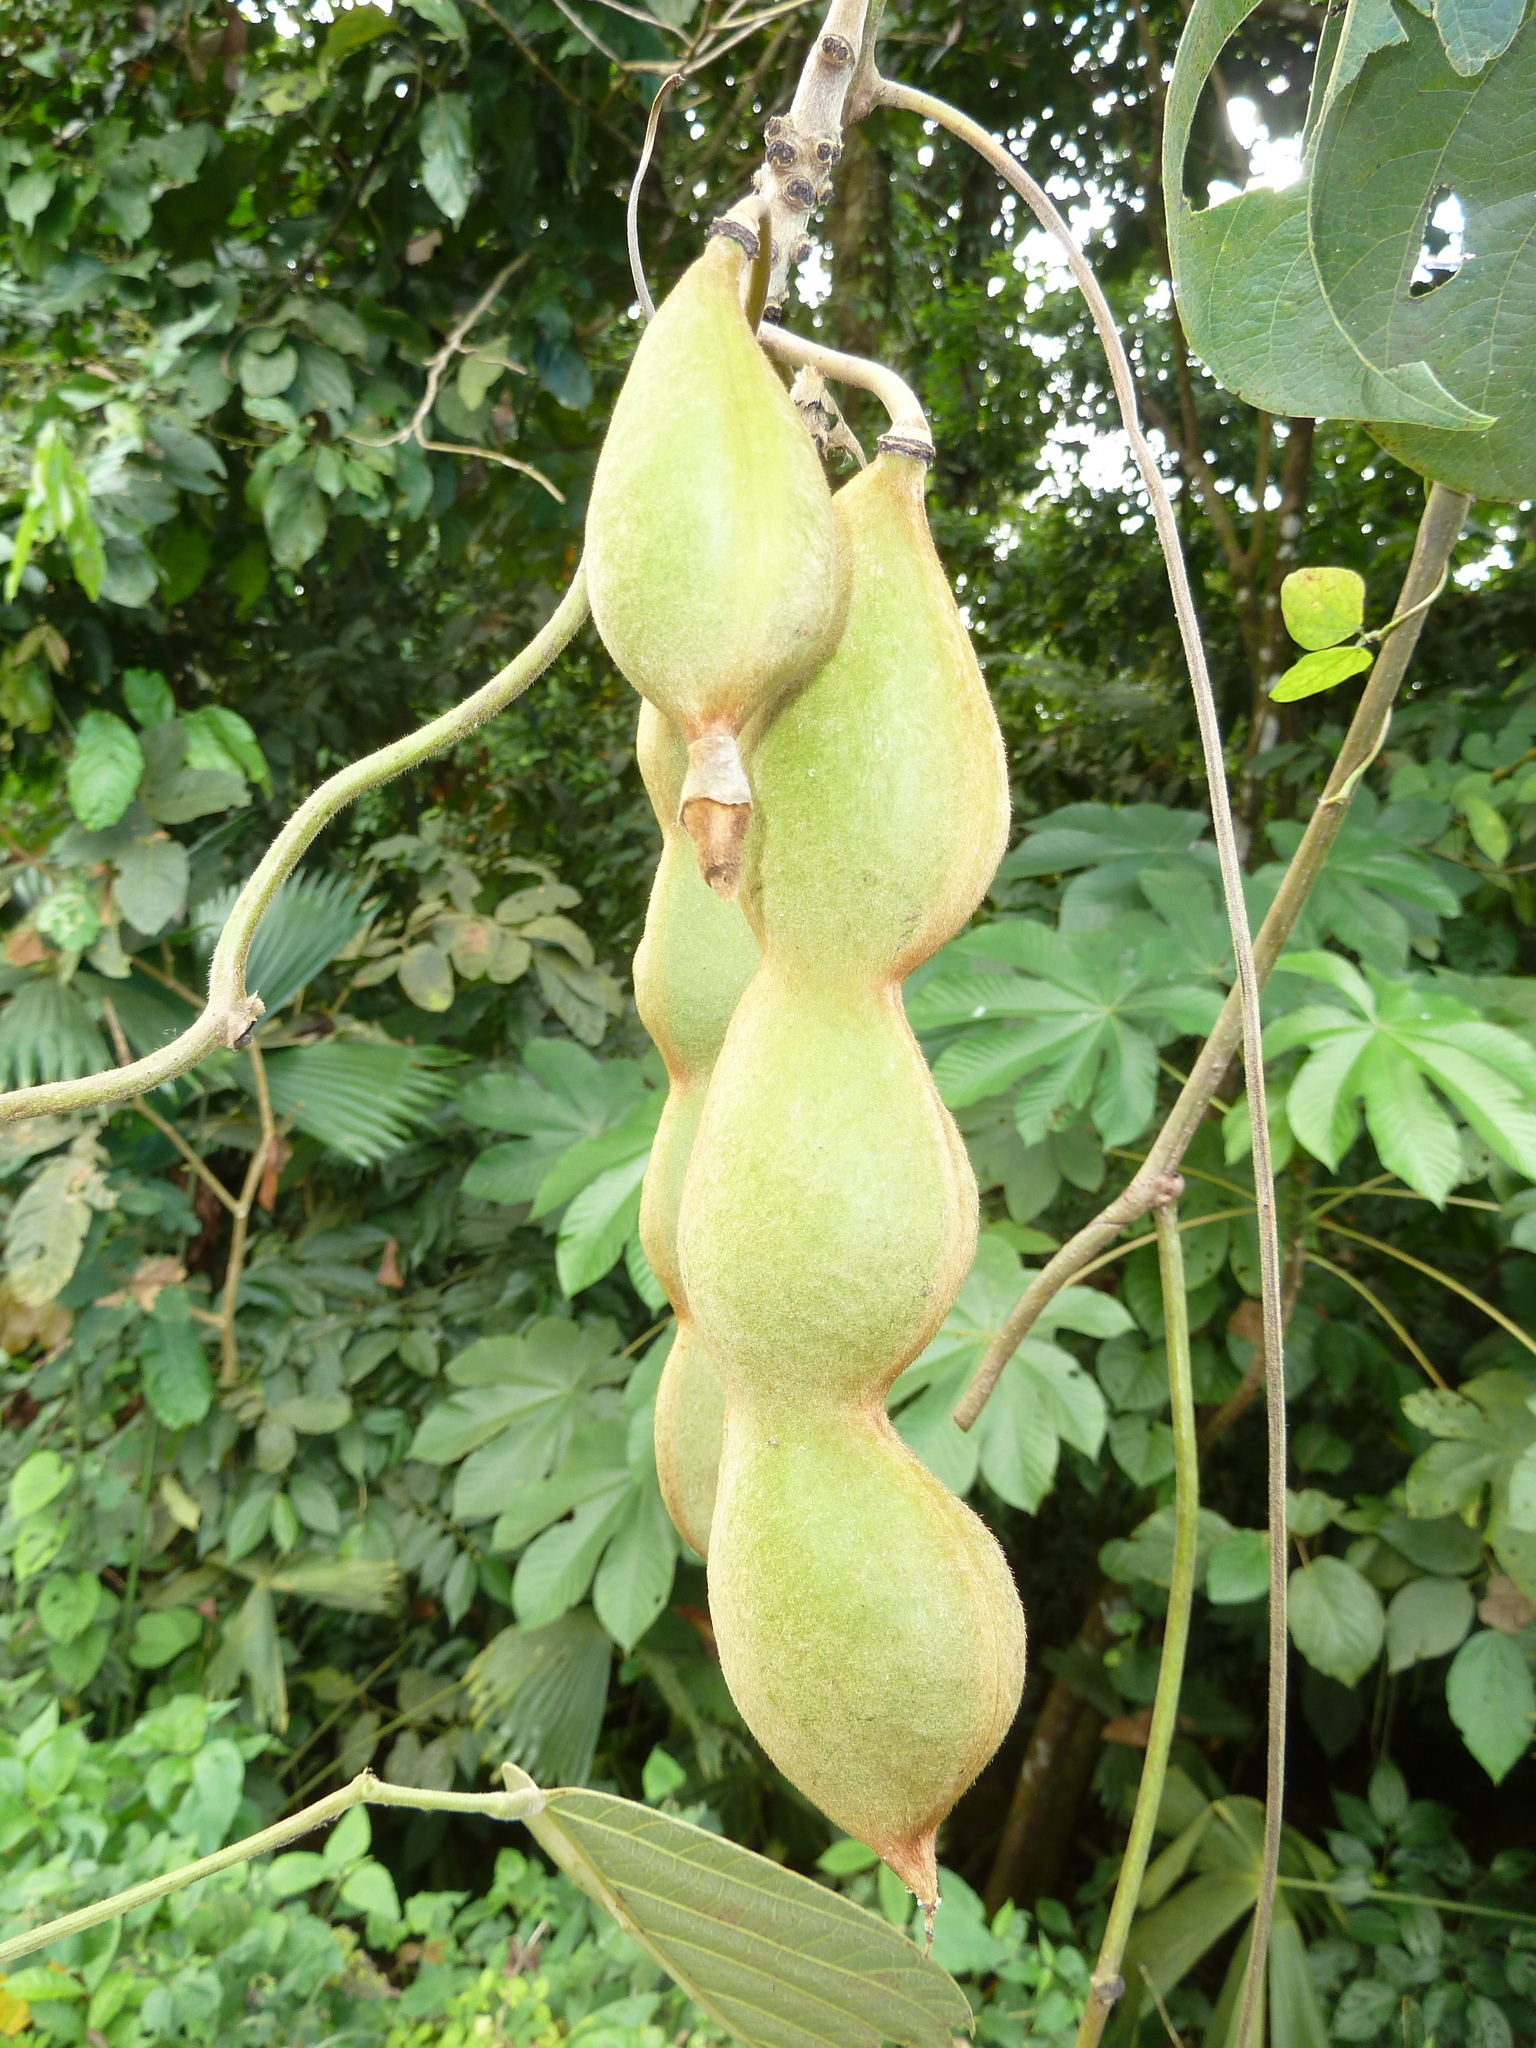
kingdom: Plantae
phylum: Tracheophyta
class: Magnoliopsida
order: Fabales
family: Fabaceae
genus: Mucuna
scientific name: Mucuna holtonii
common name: Hamburger bean
